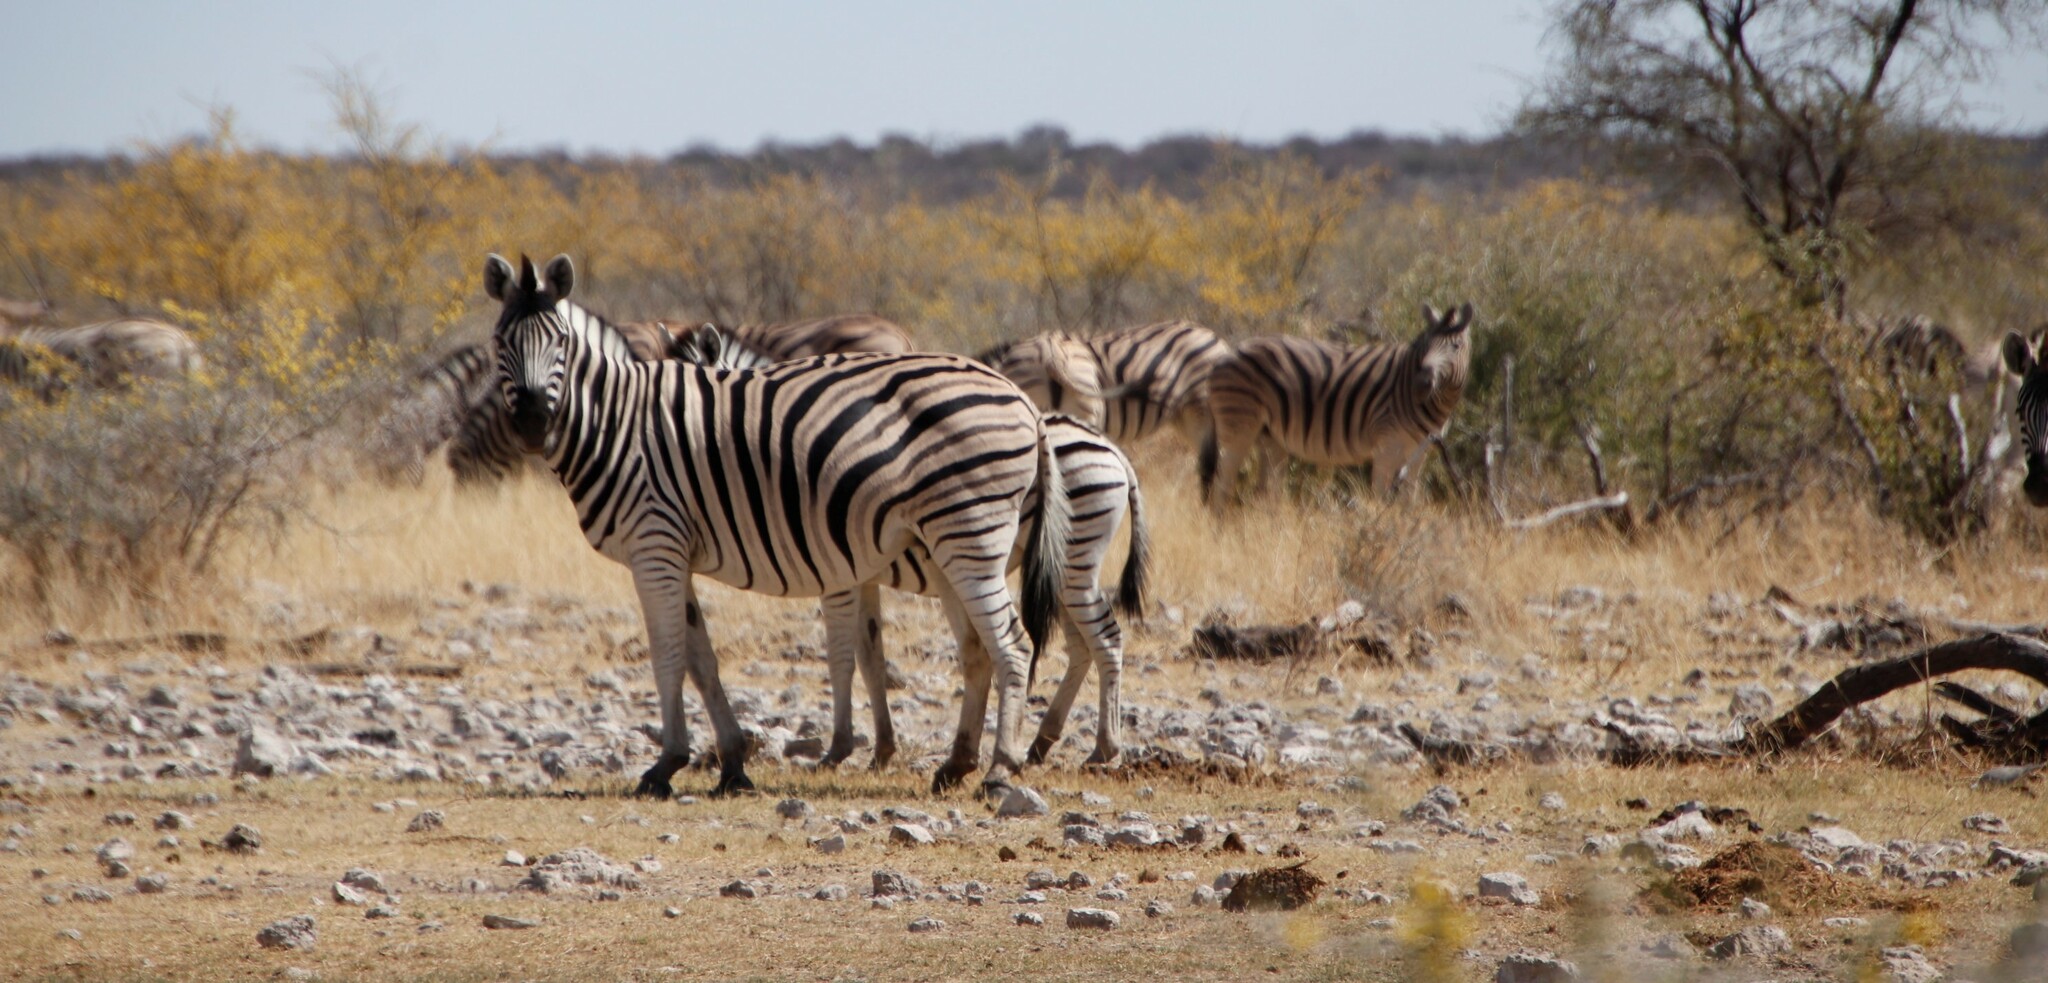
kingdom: Animalia
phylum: Chordata
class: Mammalia
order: Perissodactyla
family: Equidae
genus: Equus
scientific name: Equus quagga
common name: Plains zebra
